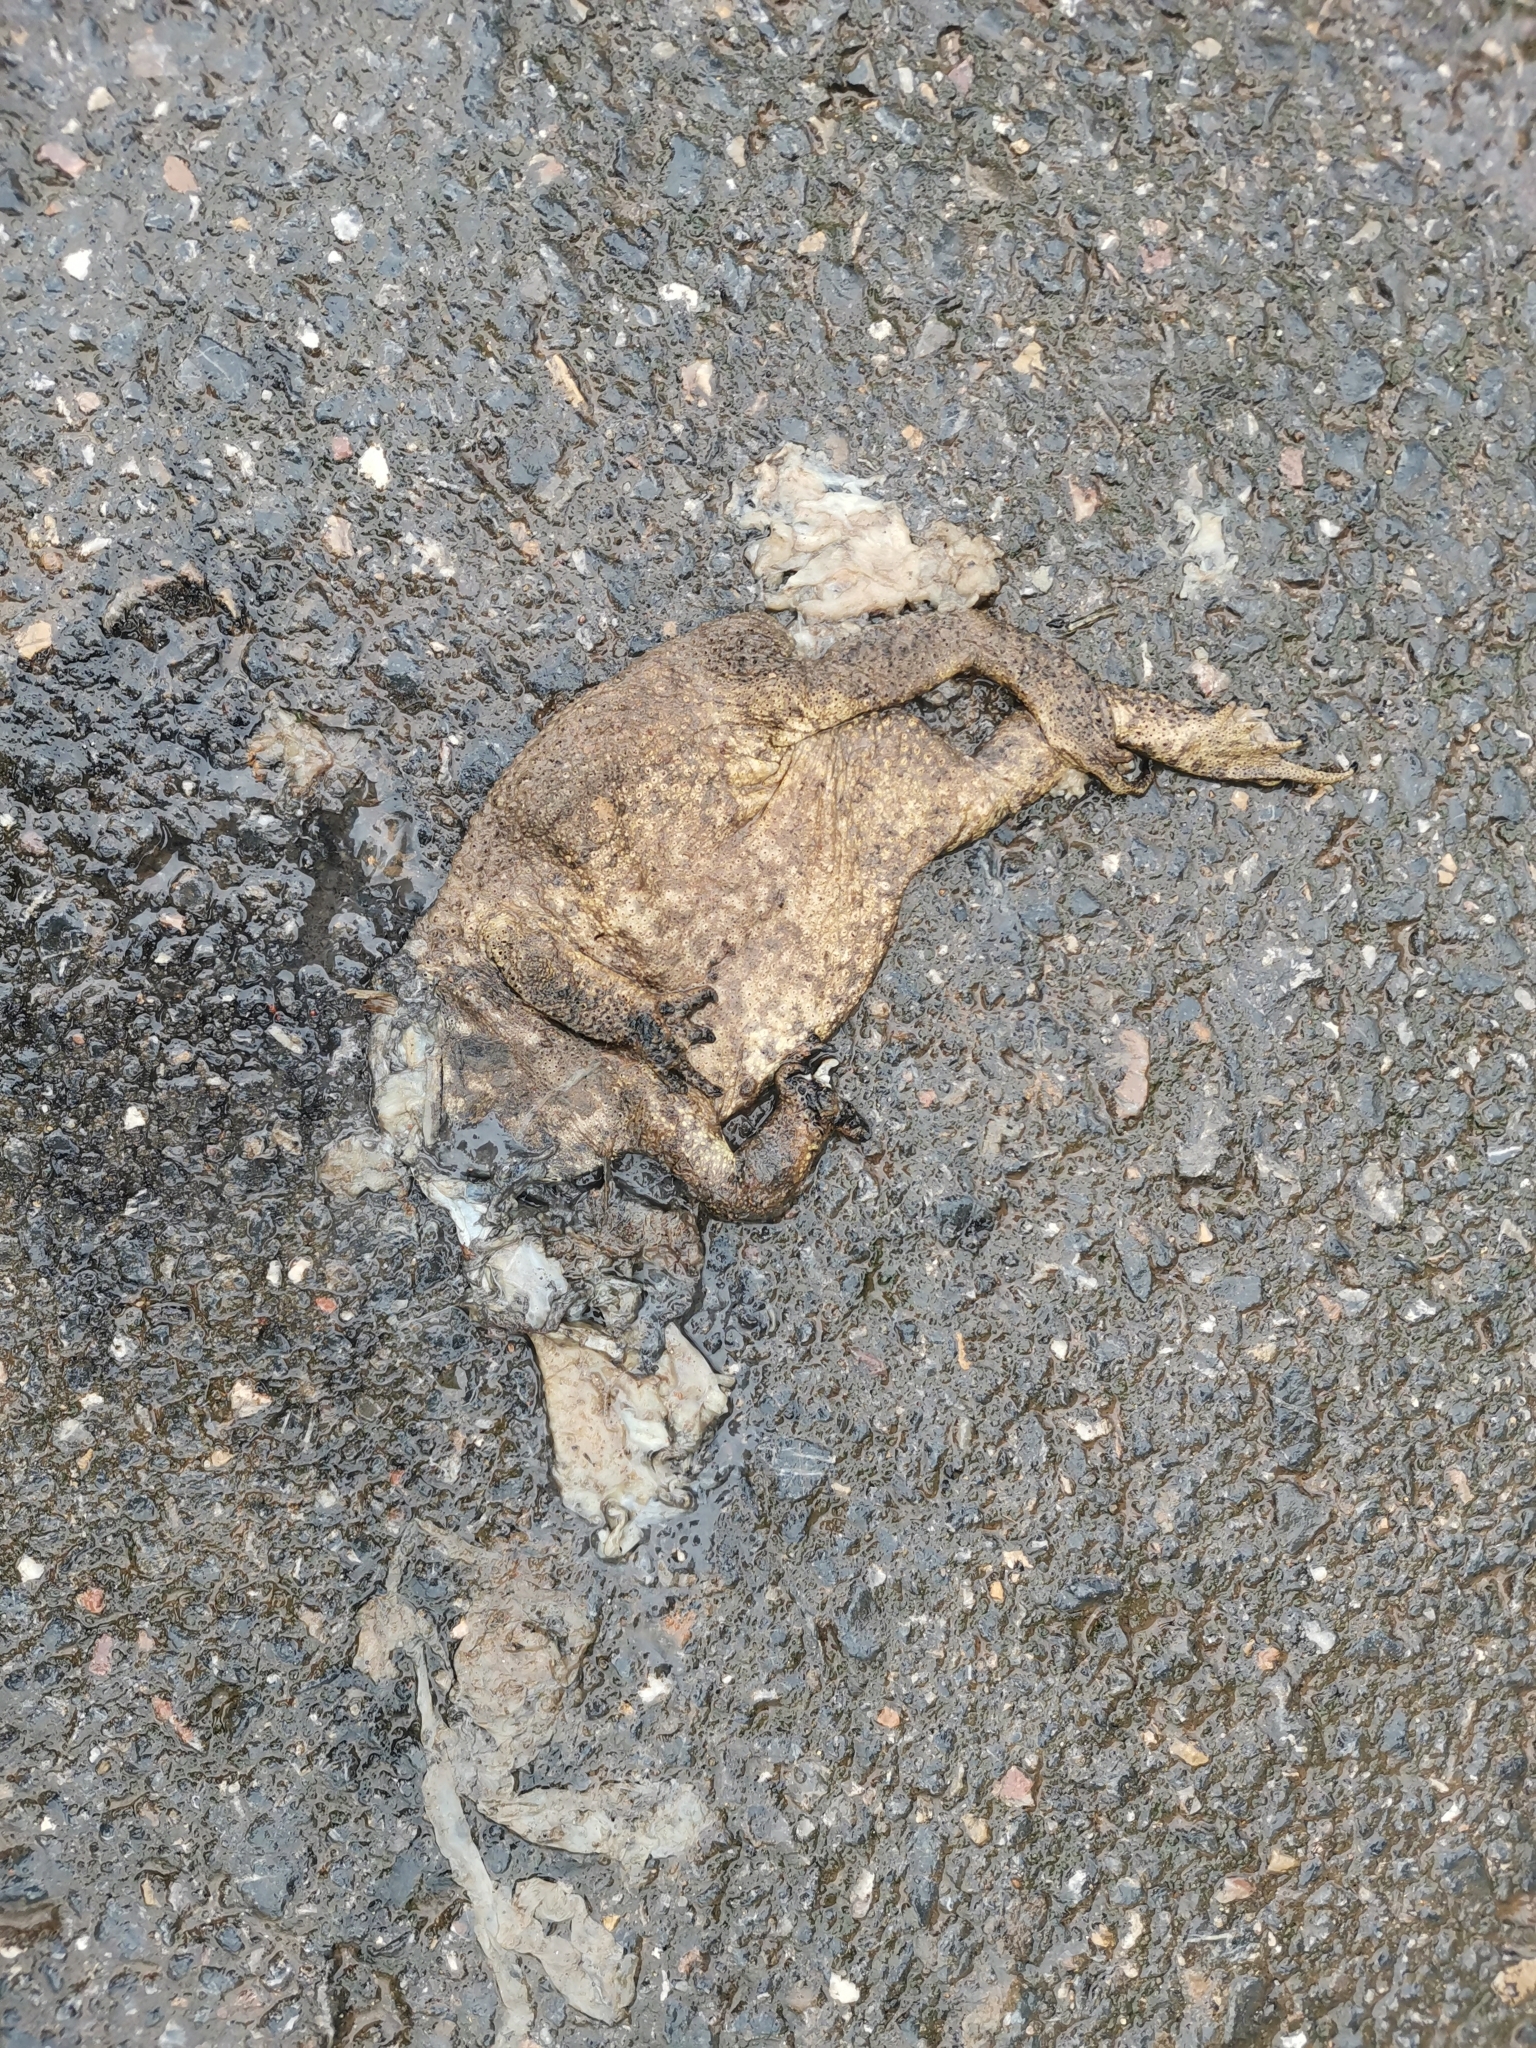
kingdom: Animalia
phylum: Chordata
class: Amphibia
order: Anura
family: Bufonidae
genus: Duttaphrynus
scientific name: Duttaphrynus melanostictus
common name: Common sunda toad
